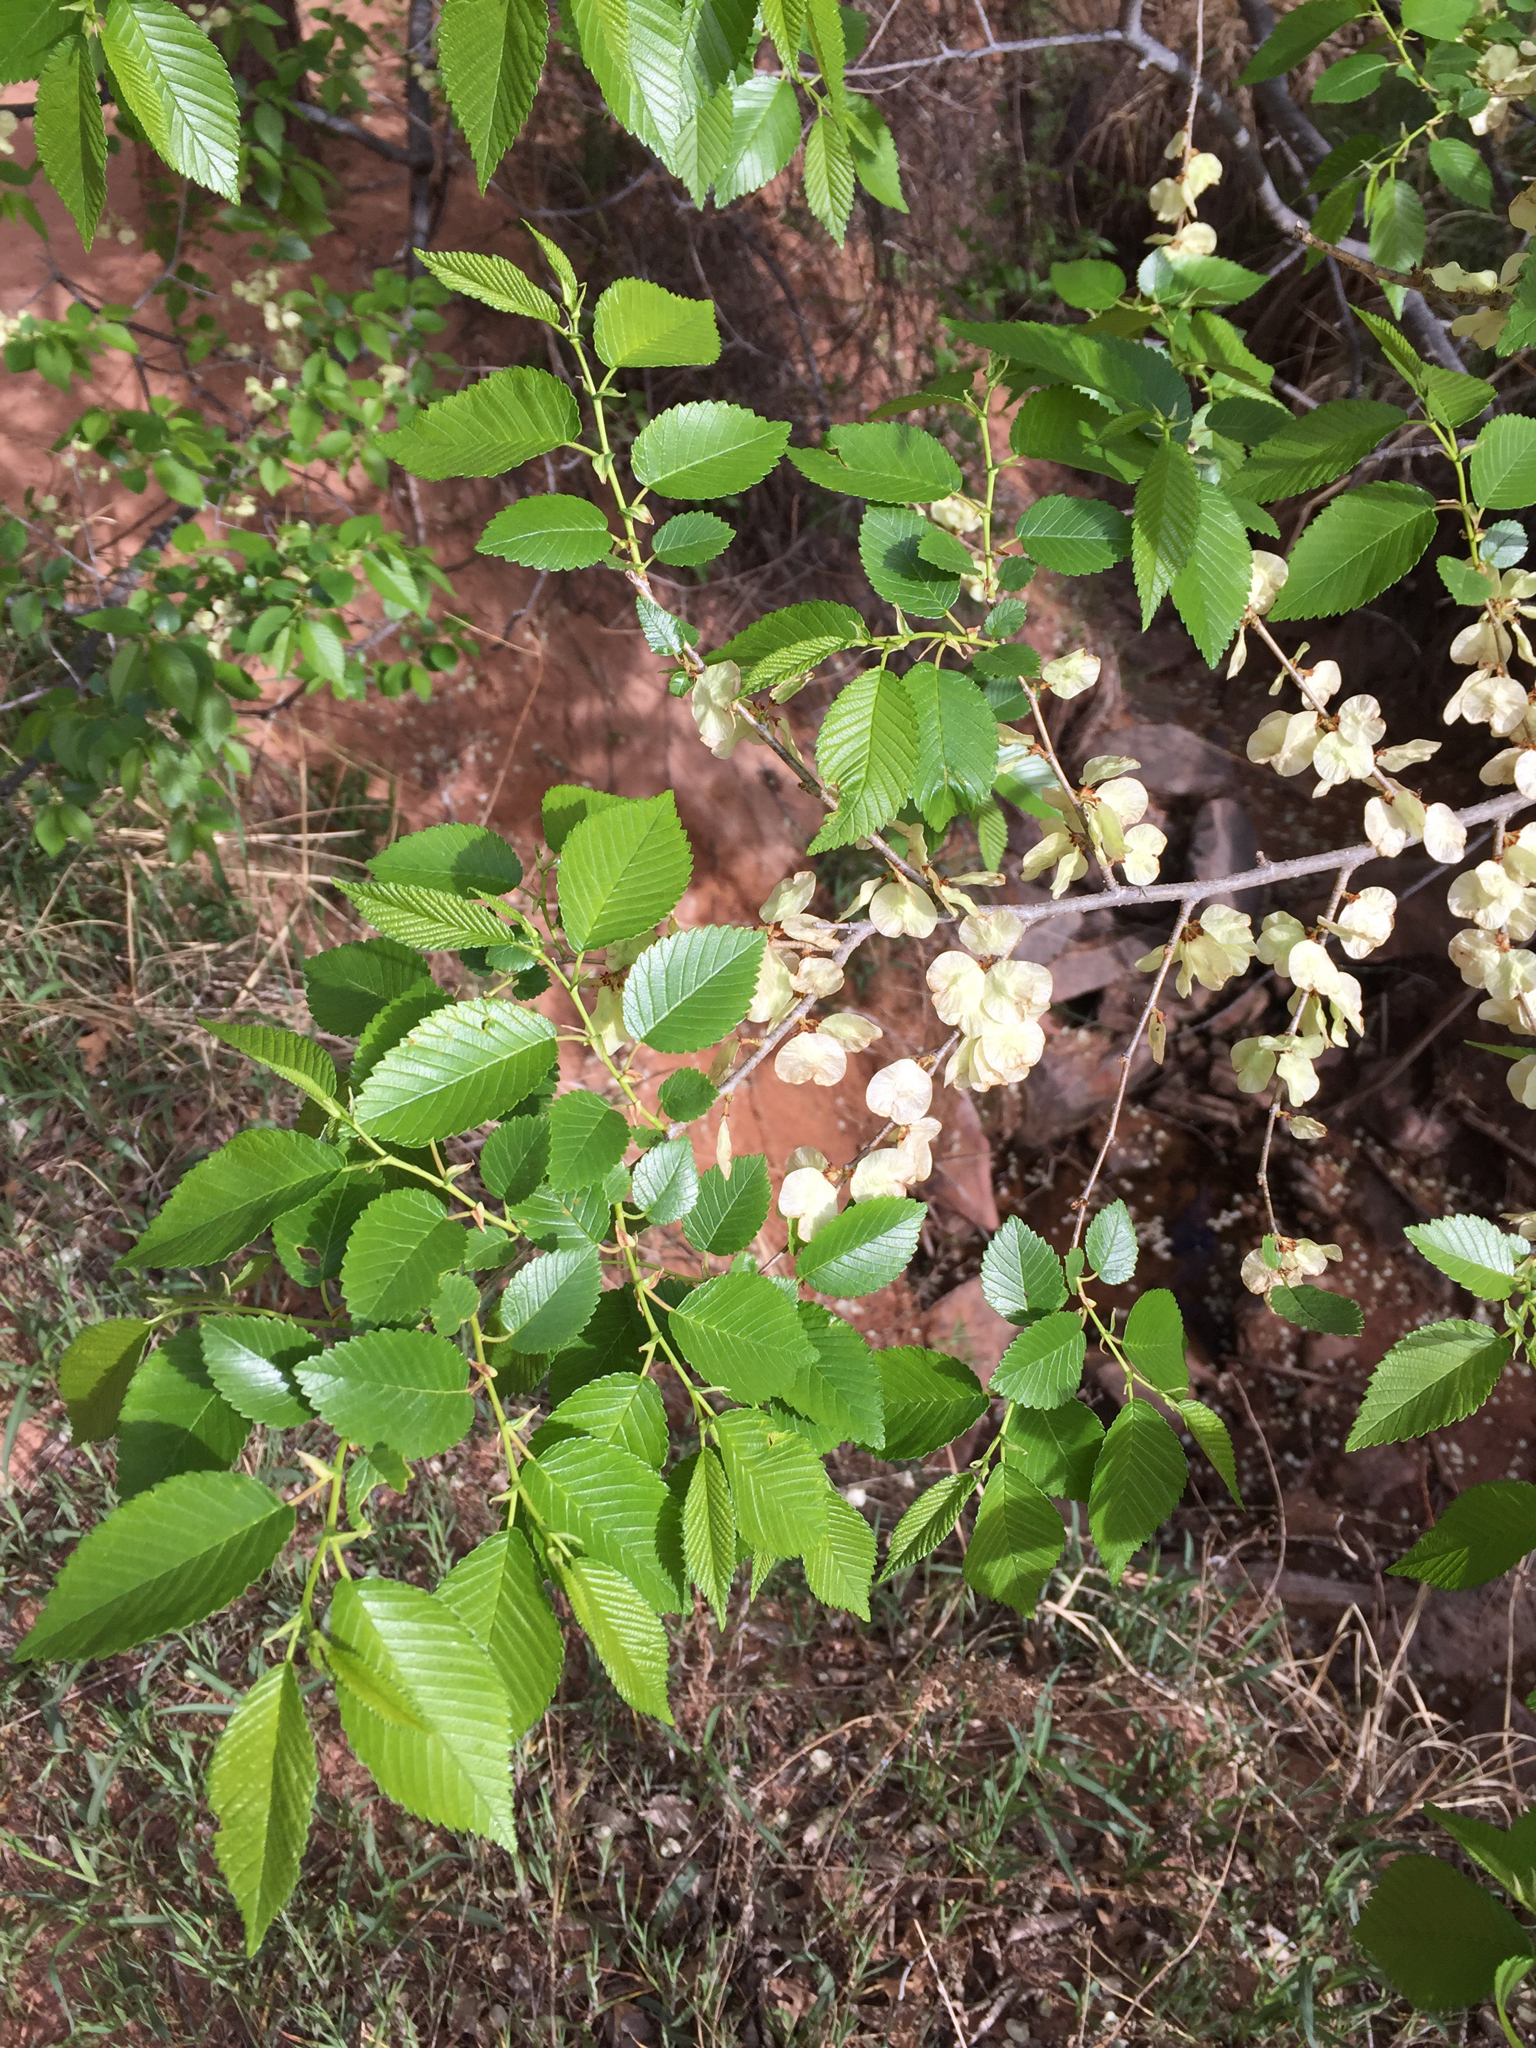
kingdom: Plantae
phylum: Tracheophyta
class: Magnoliopsida
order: Rosales
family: Ulmaceae
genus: Ulmus
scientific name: Ulmus pumila
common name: Siberian elm
